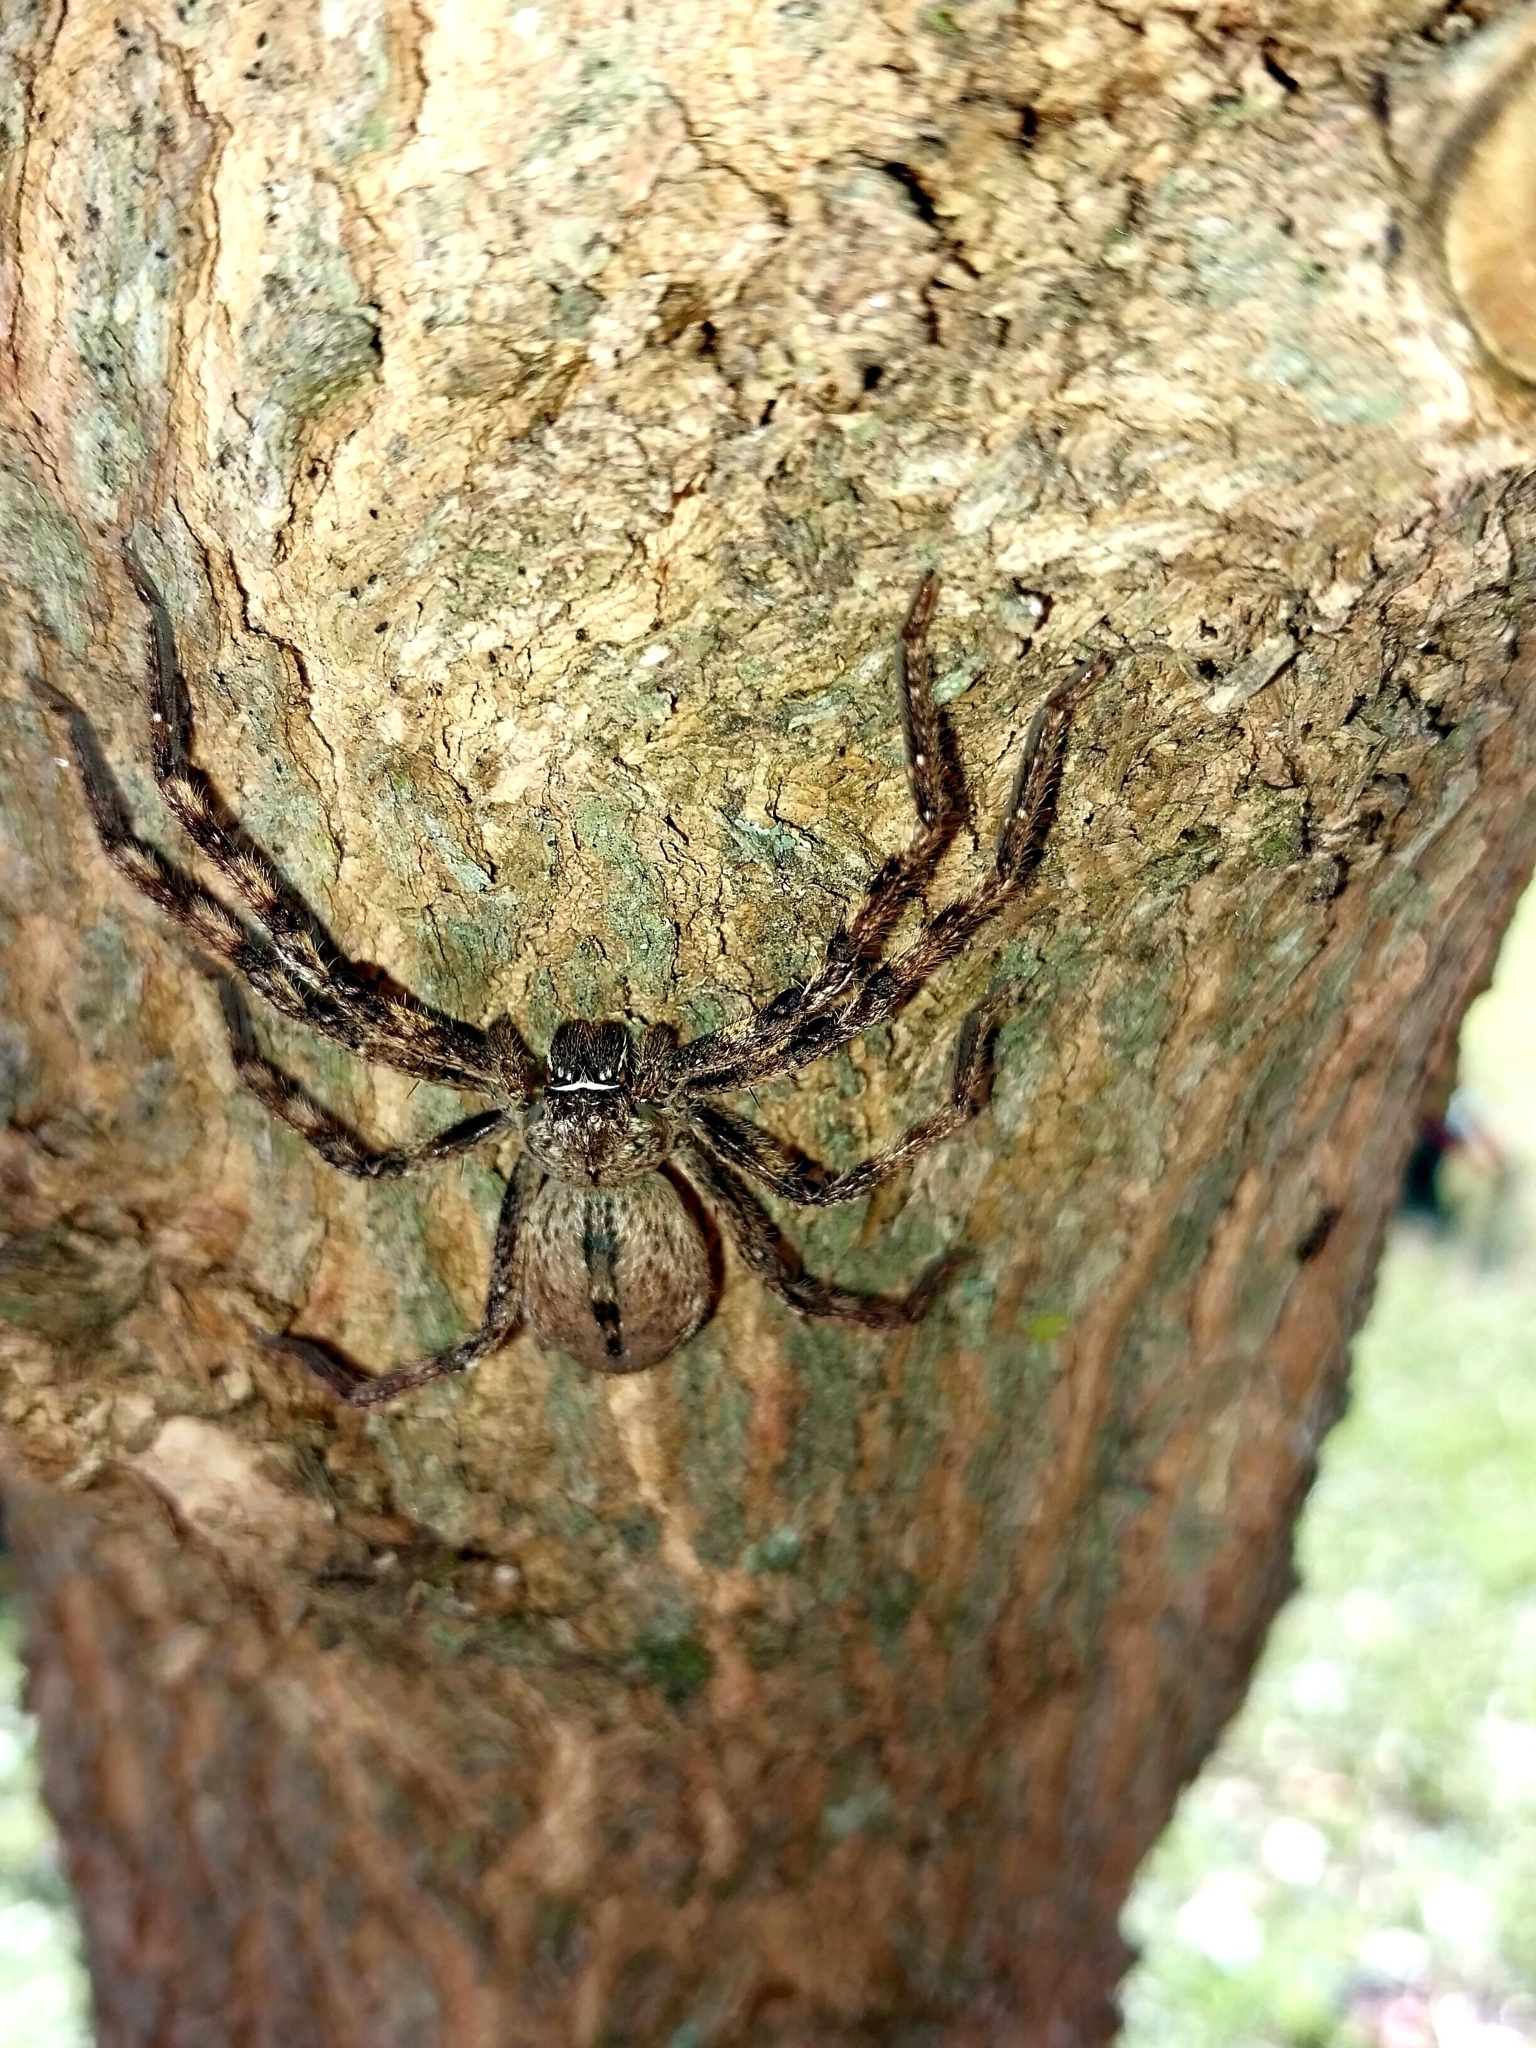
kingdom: Animalia
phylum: Arthropoda
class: Arachnida
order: Araneae
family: Sparassidae
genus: Palystes
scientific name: Palystes superciliosus
